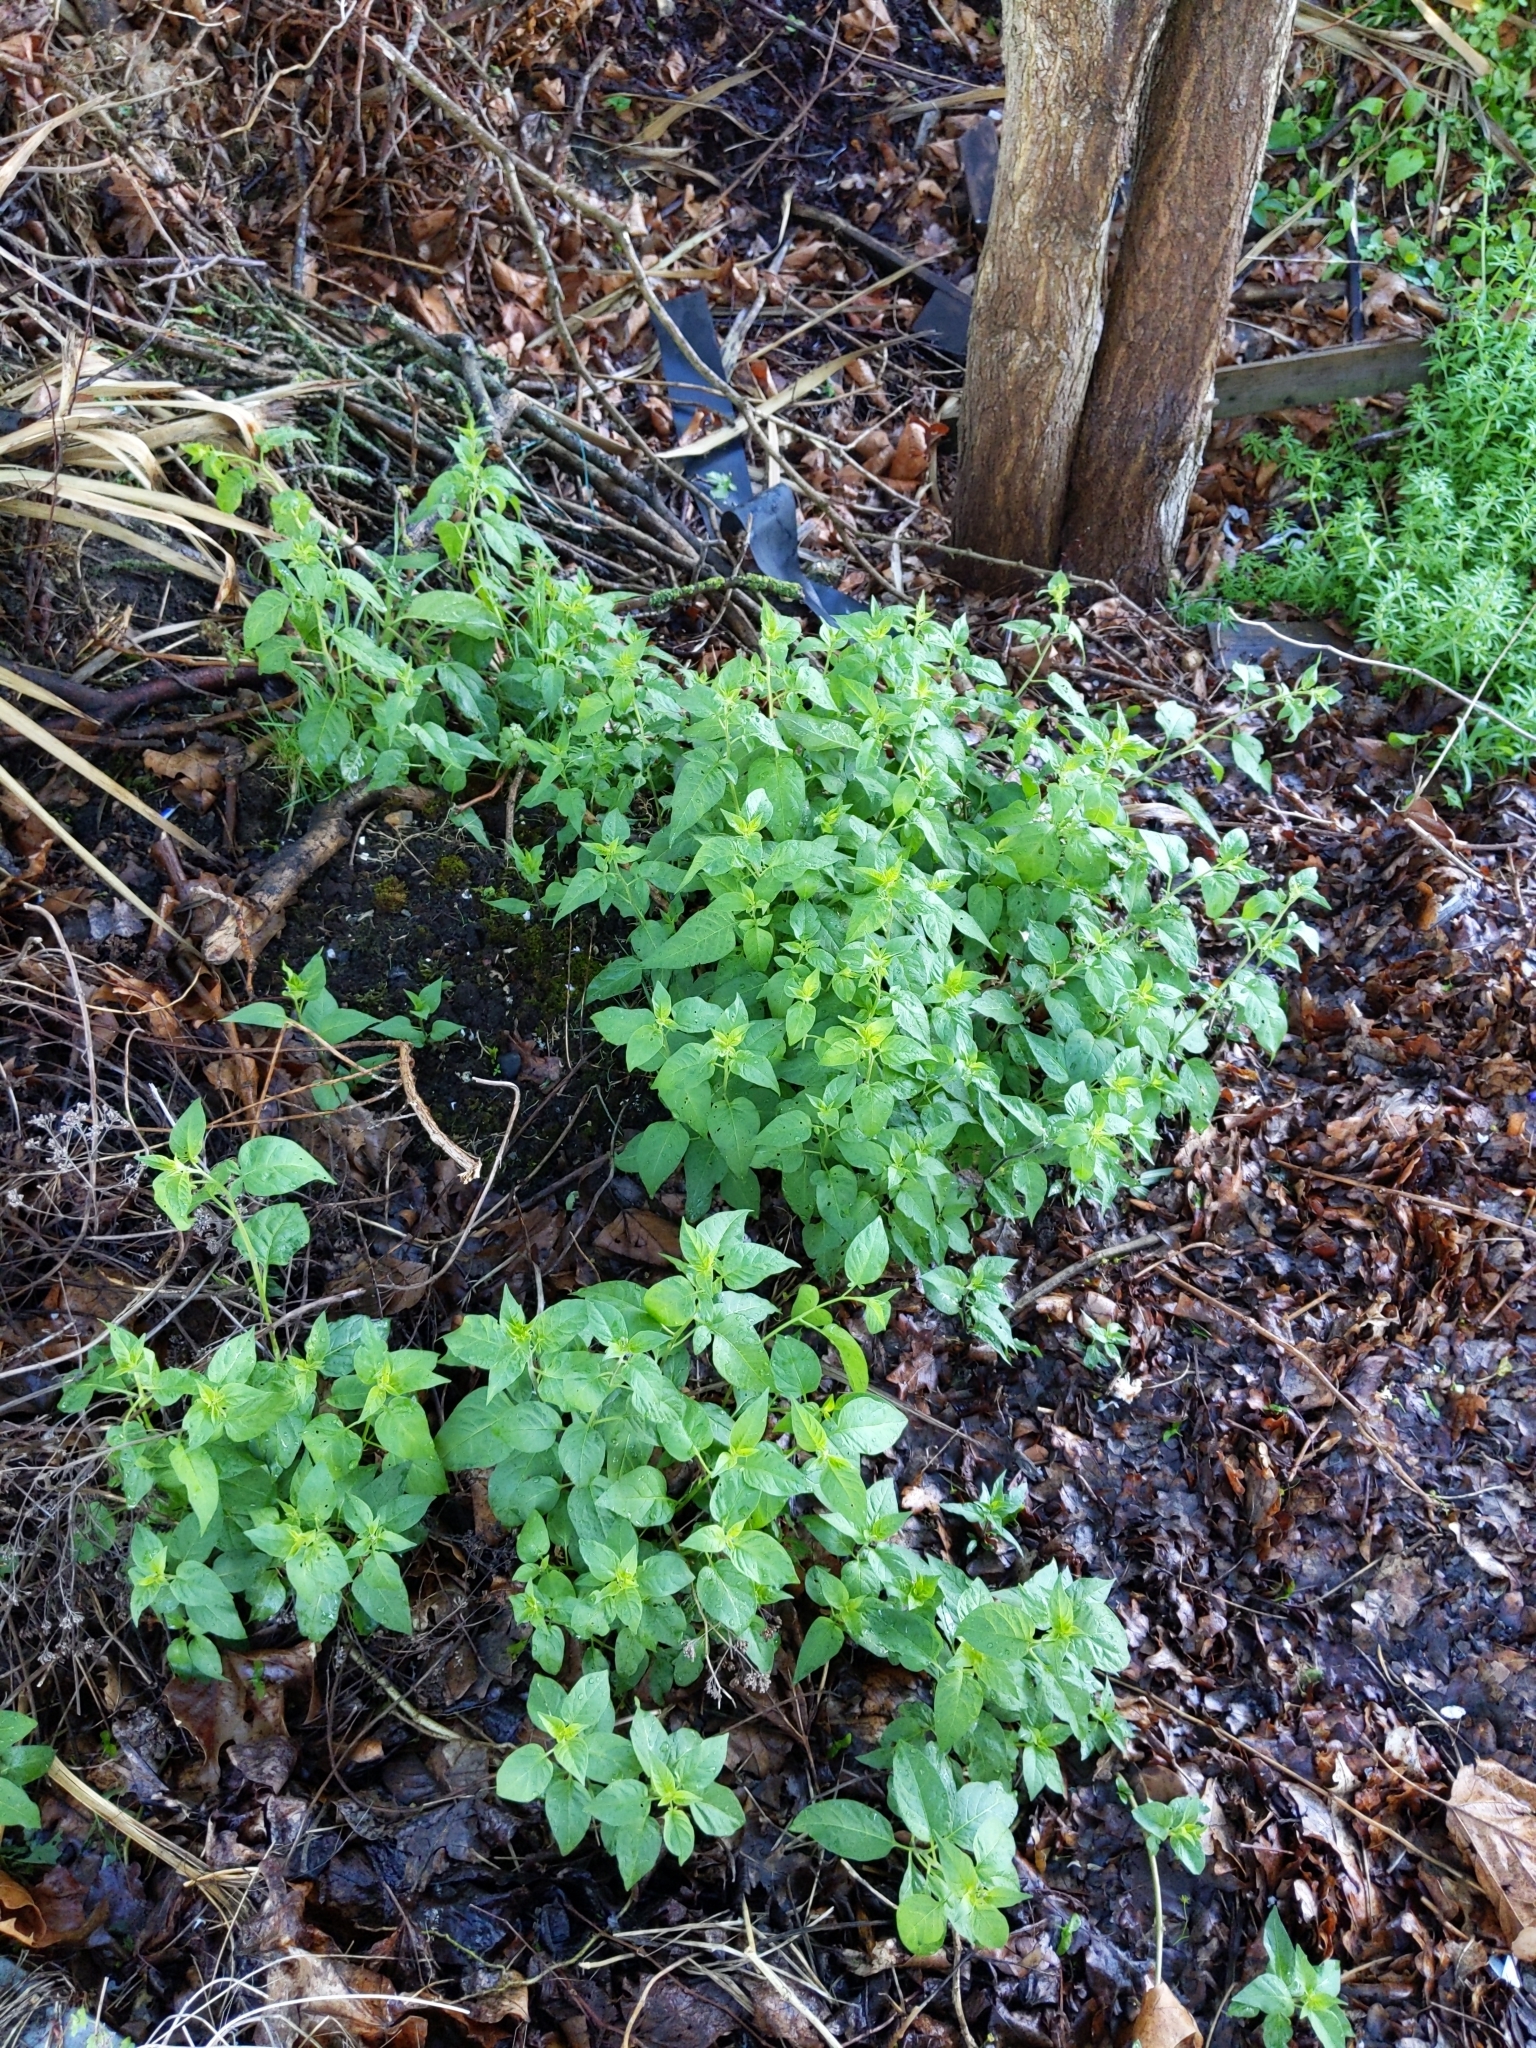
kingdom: Plantae
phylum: Tracheophyta
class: Magnoliopsida
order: Solanales
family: Solanaceae
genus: Solanum
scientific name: Solanum dulcamara
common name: Climbing nightshade
